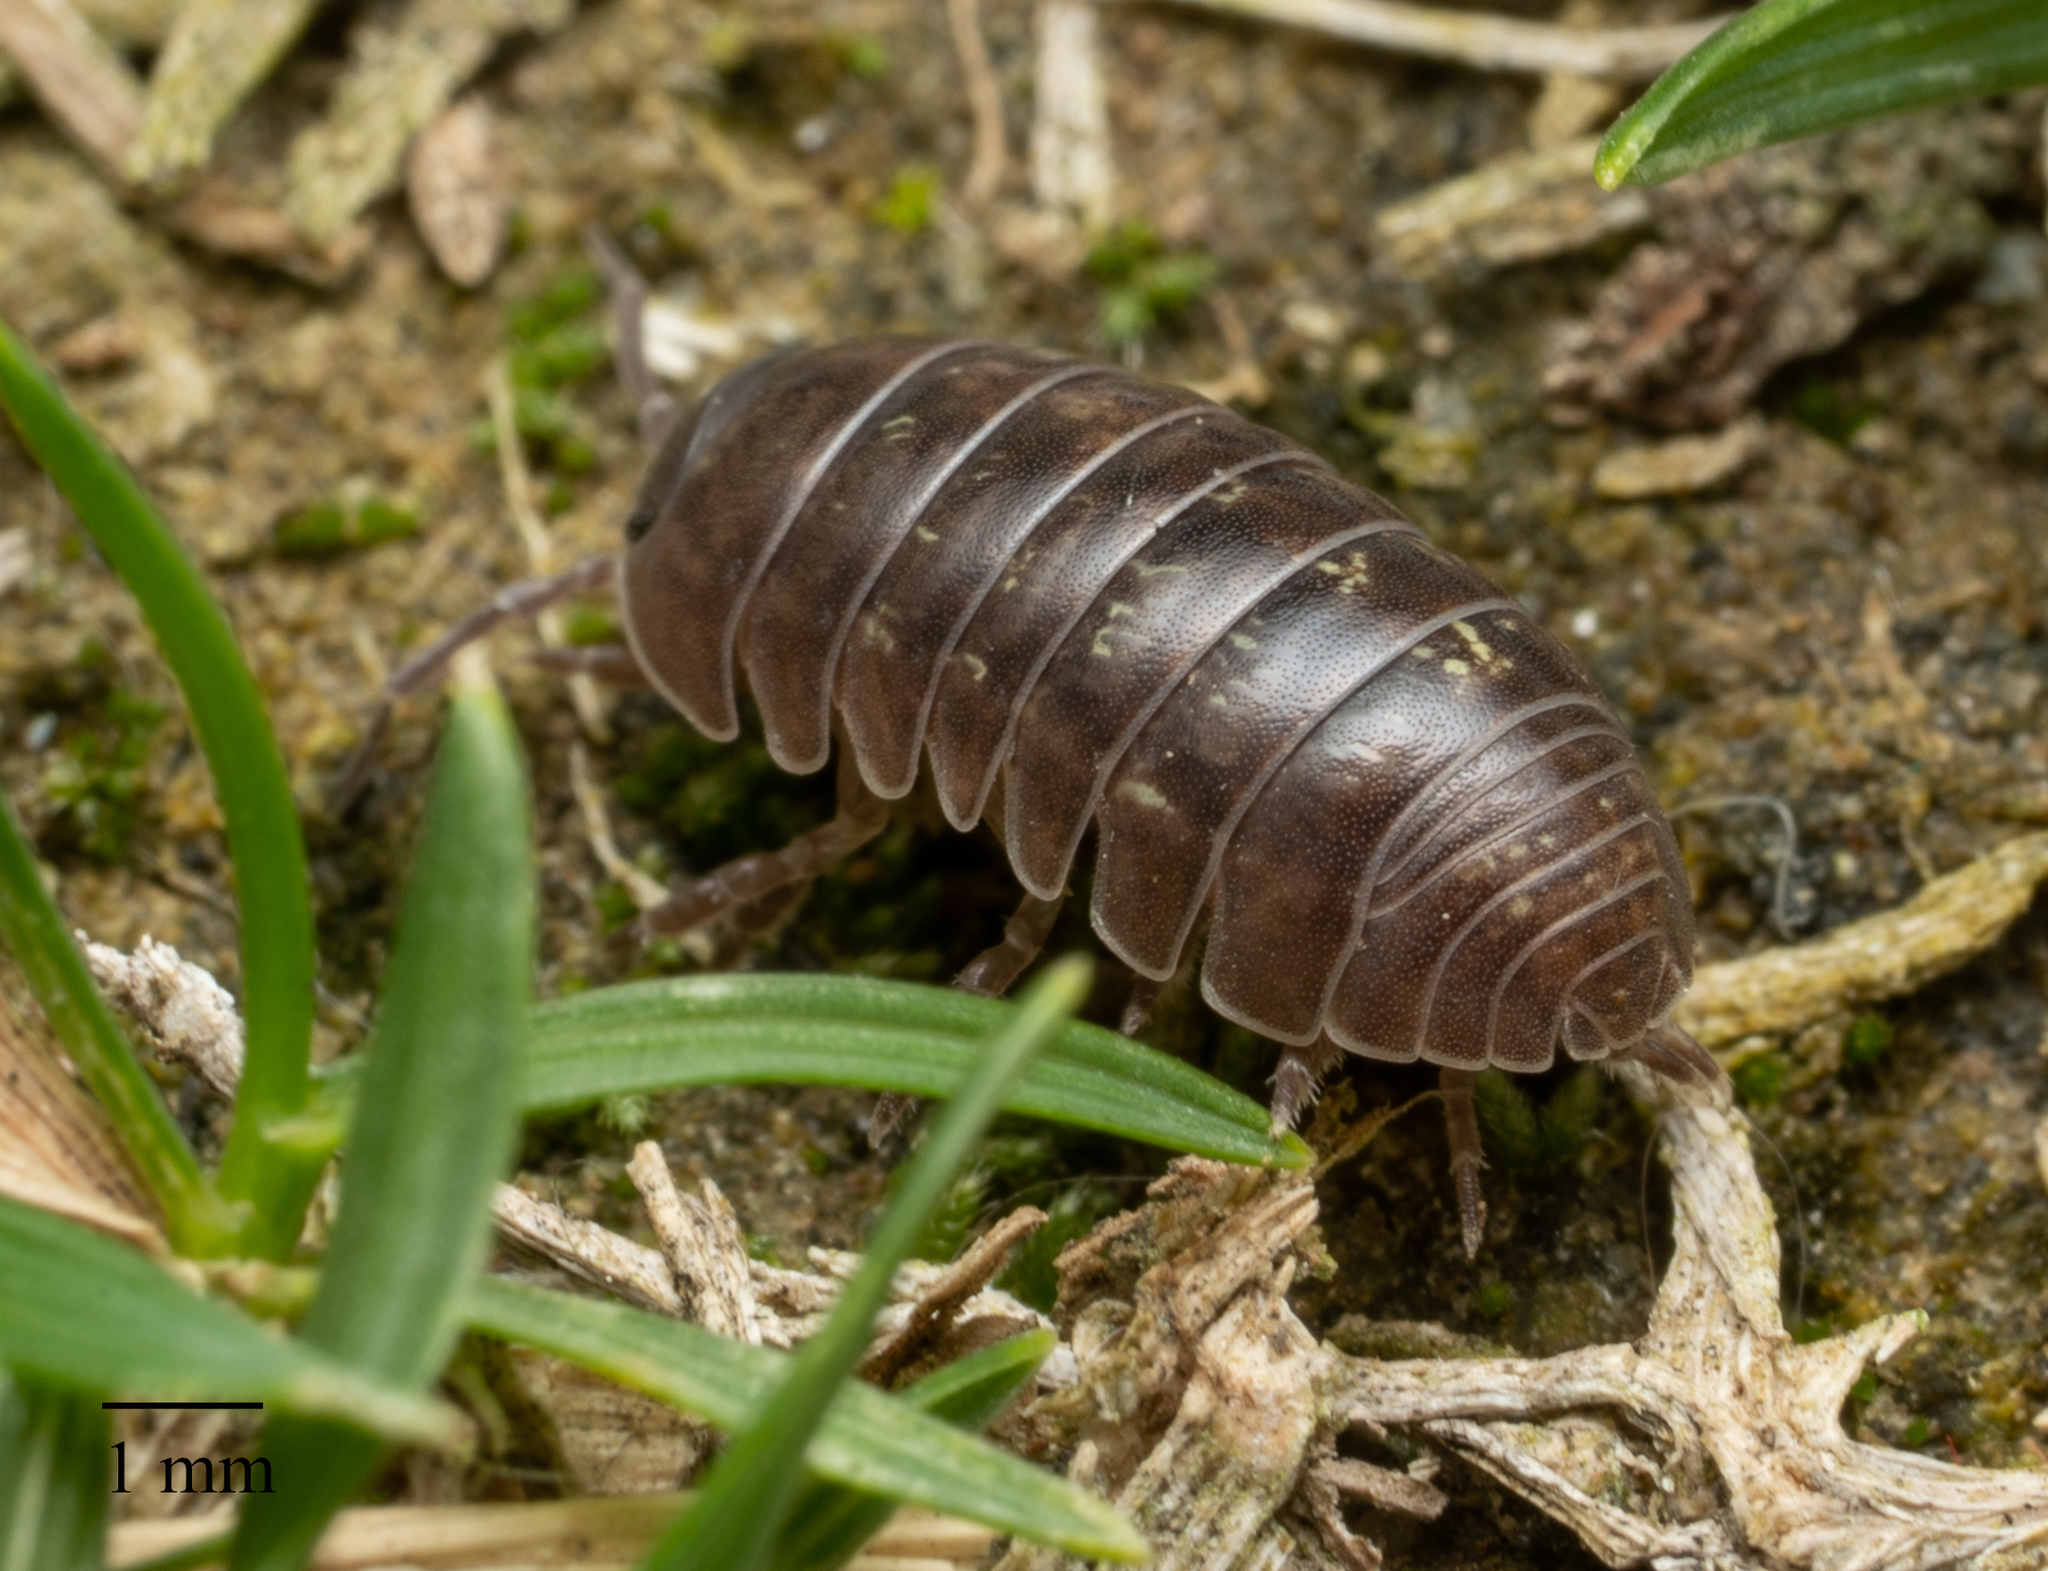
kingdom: Animalia
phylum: Arthropoda
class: Malacostraca
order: Isopoda
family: Armadillidiidae
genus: Armadillidium
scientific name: Armadillidium vulgare
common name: Common pill woodlouse
